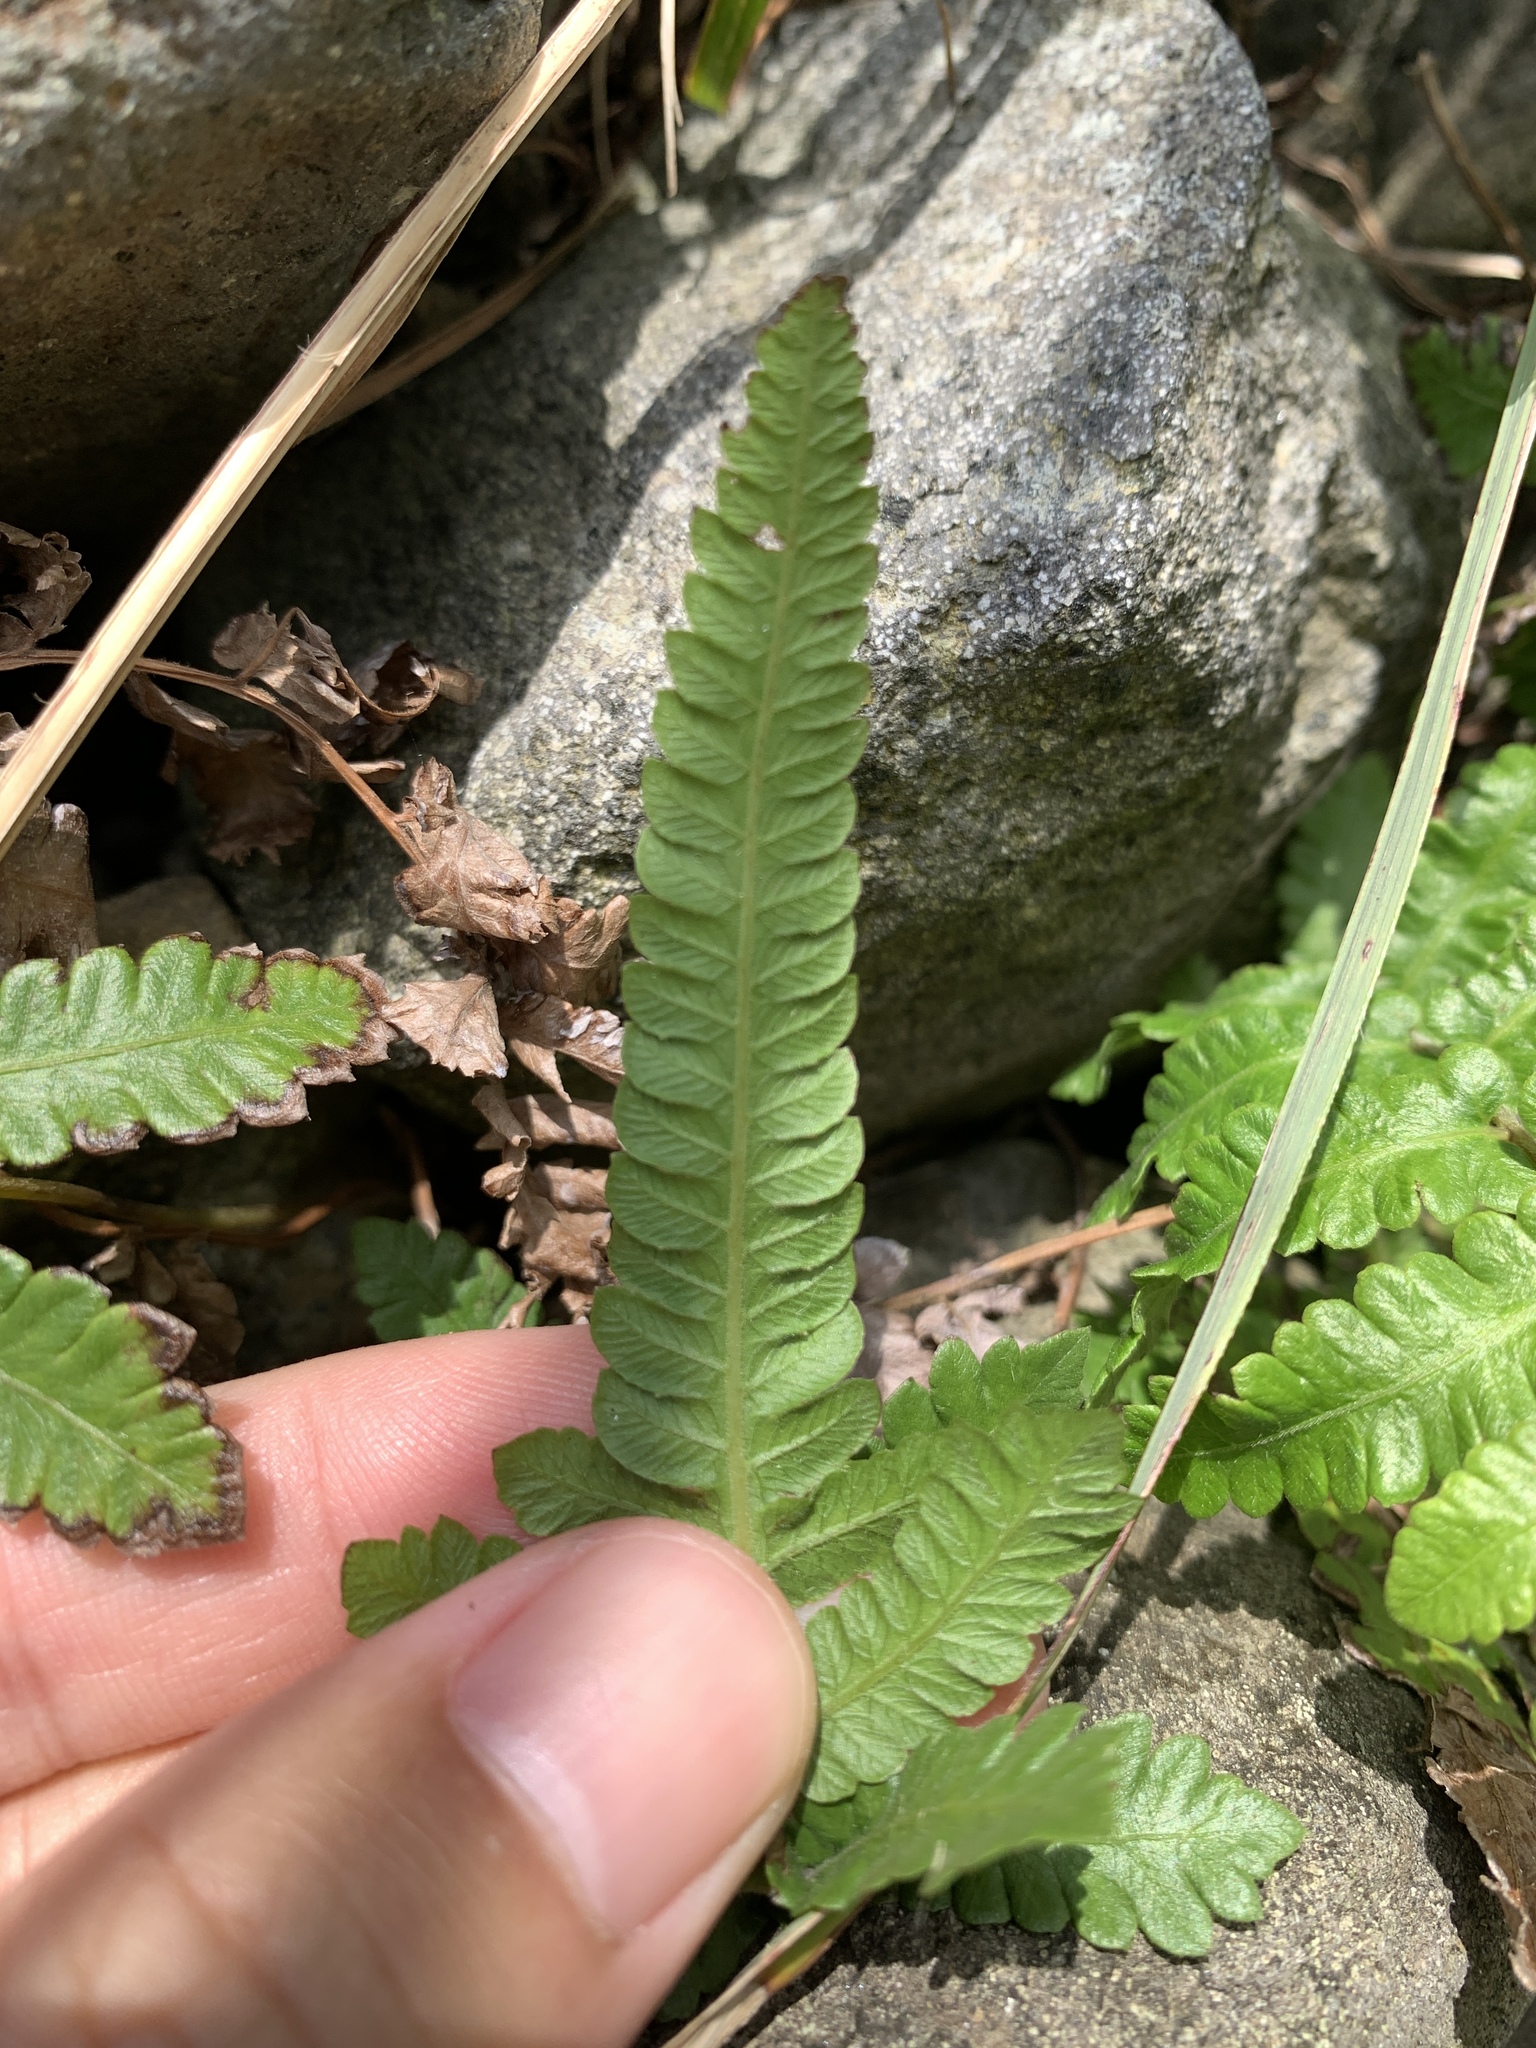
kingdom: Plantae
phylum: Tracheophyta
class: Polypodiopsida
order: Polypodiales
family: Thelypteridaceae
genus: Christella
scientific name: Christella acuminata
